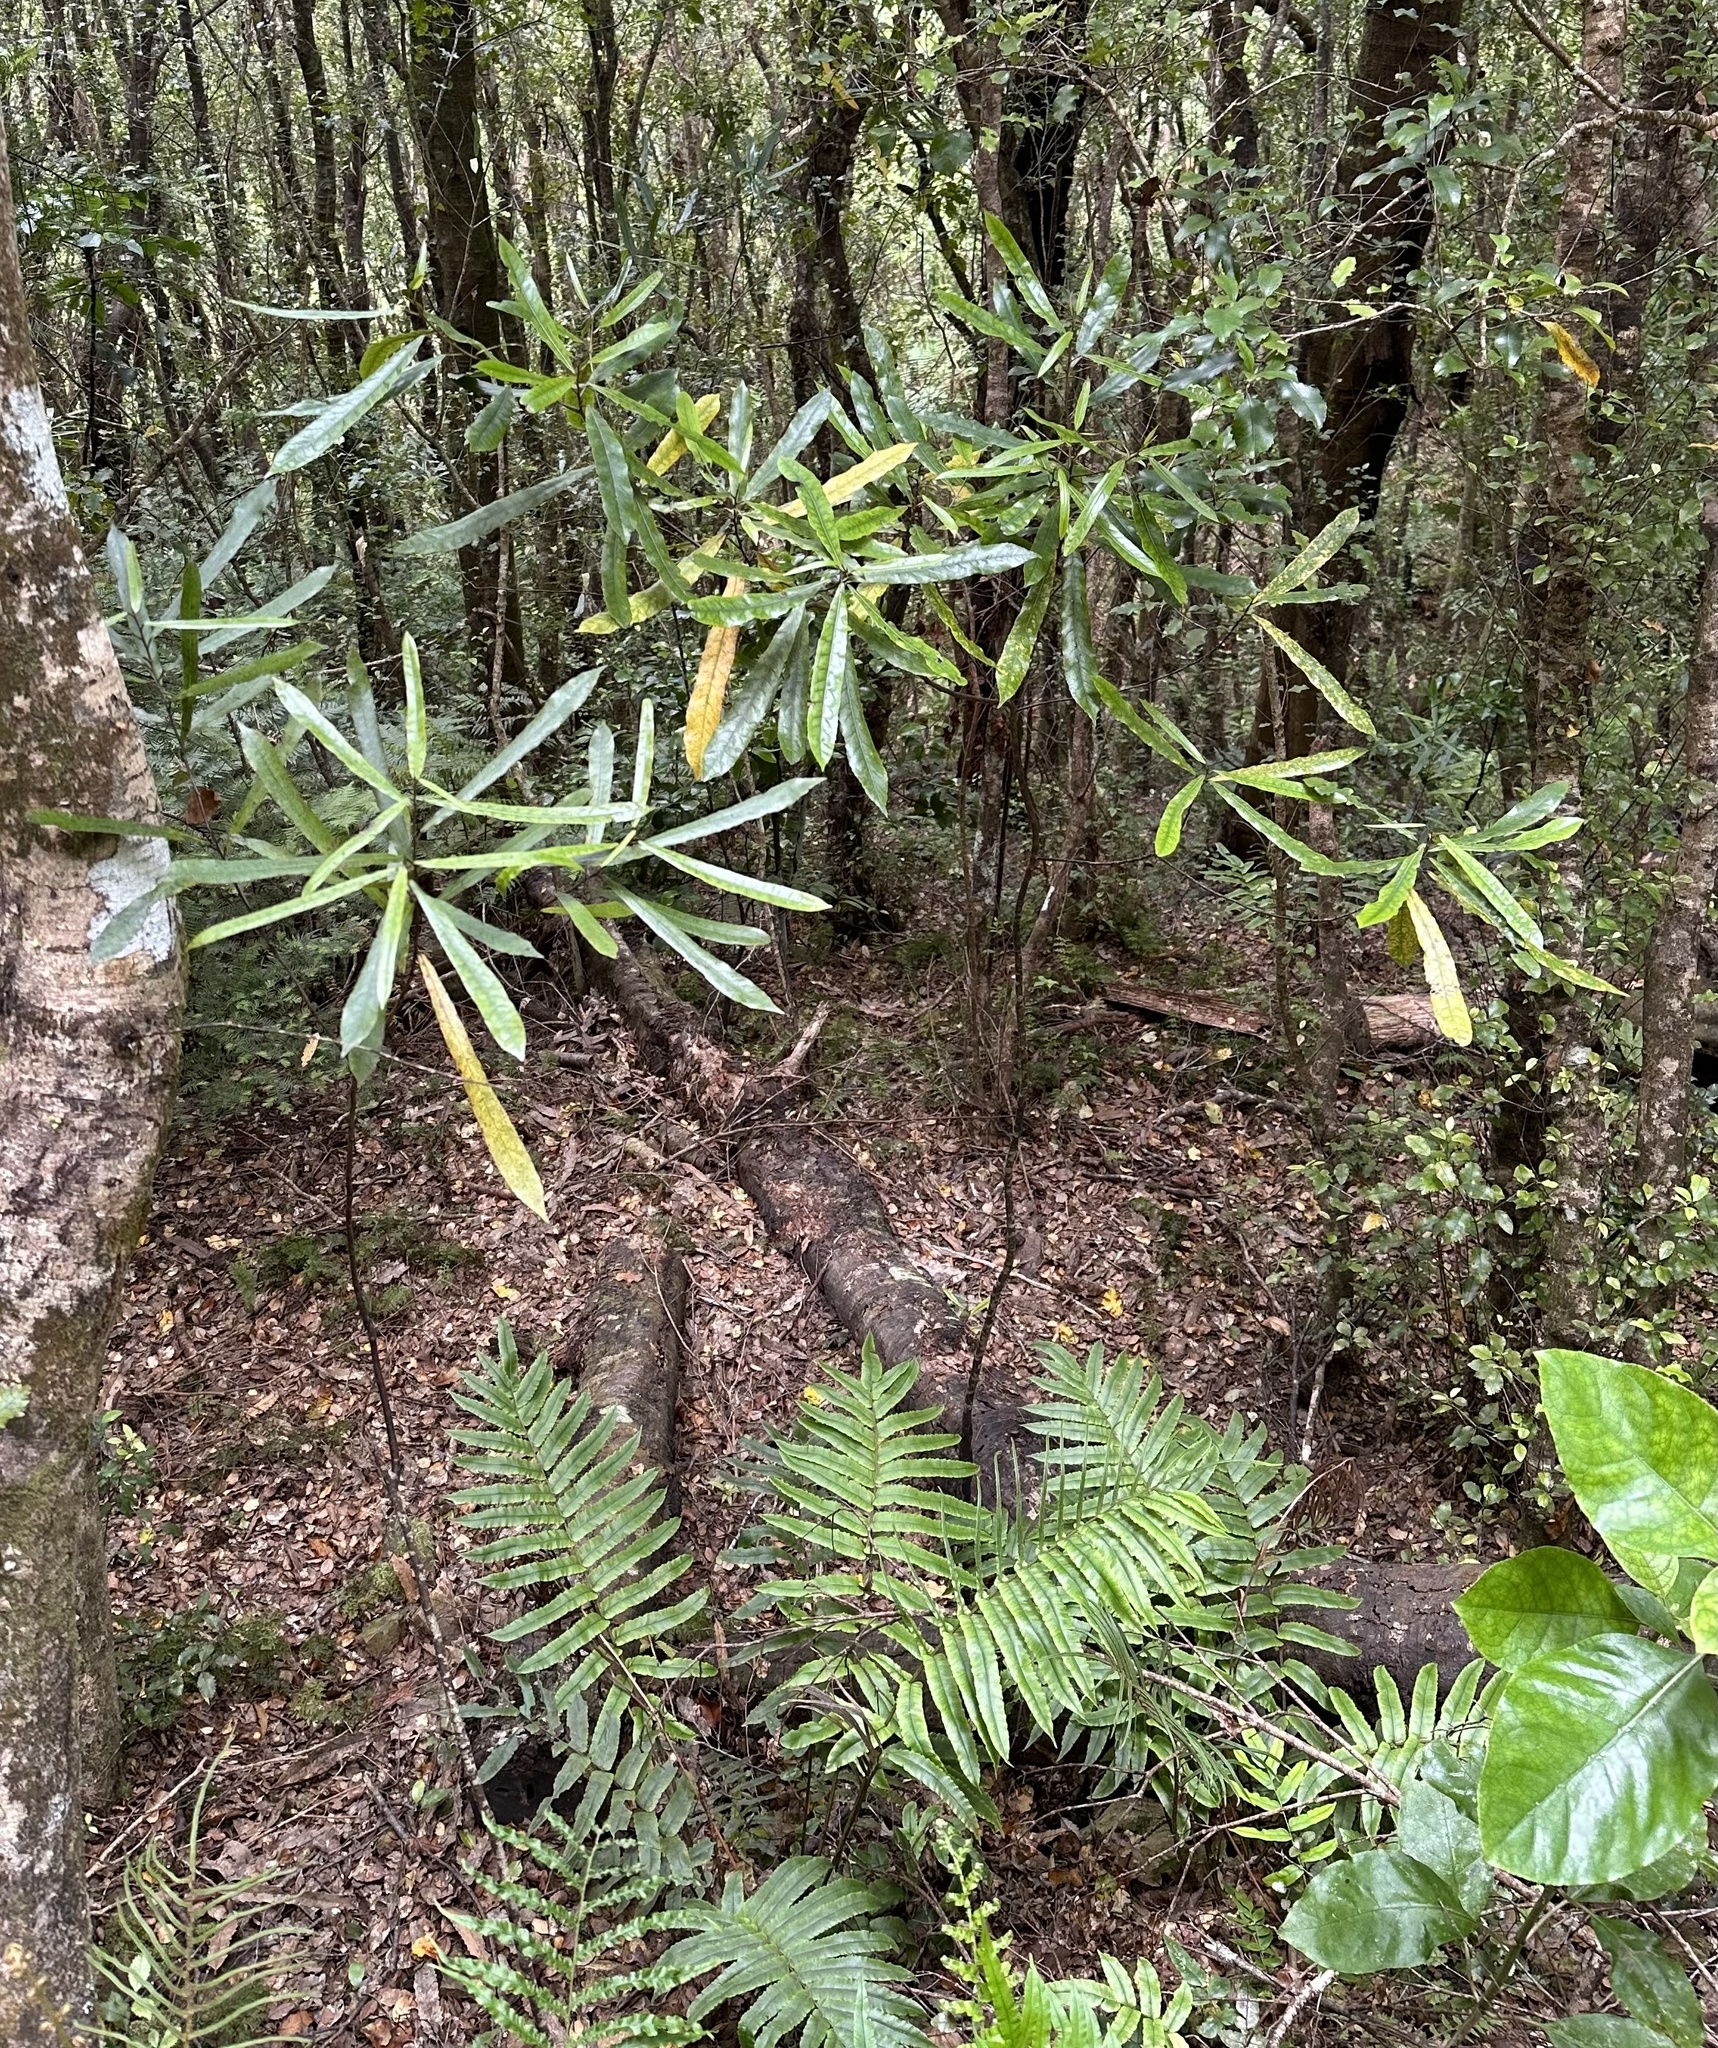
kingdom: Plantae
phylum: Tracheophyta
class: Magnoliopsida
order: Oxalidales
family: Elaeocarpaceae
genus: Elaeocarpus
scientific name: Elaeocarpus dentatus
